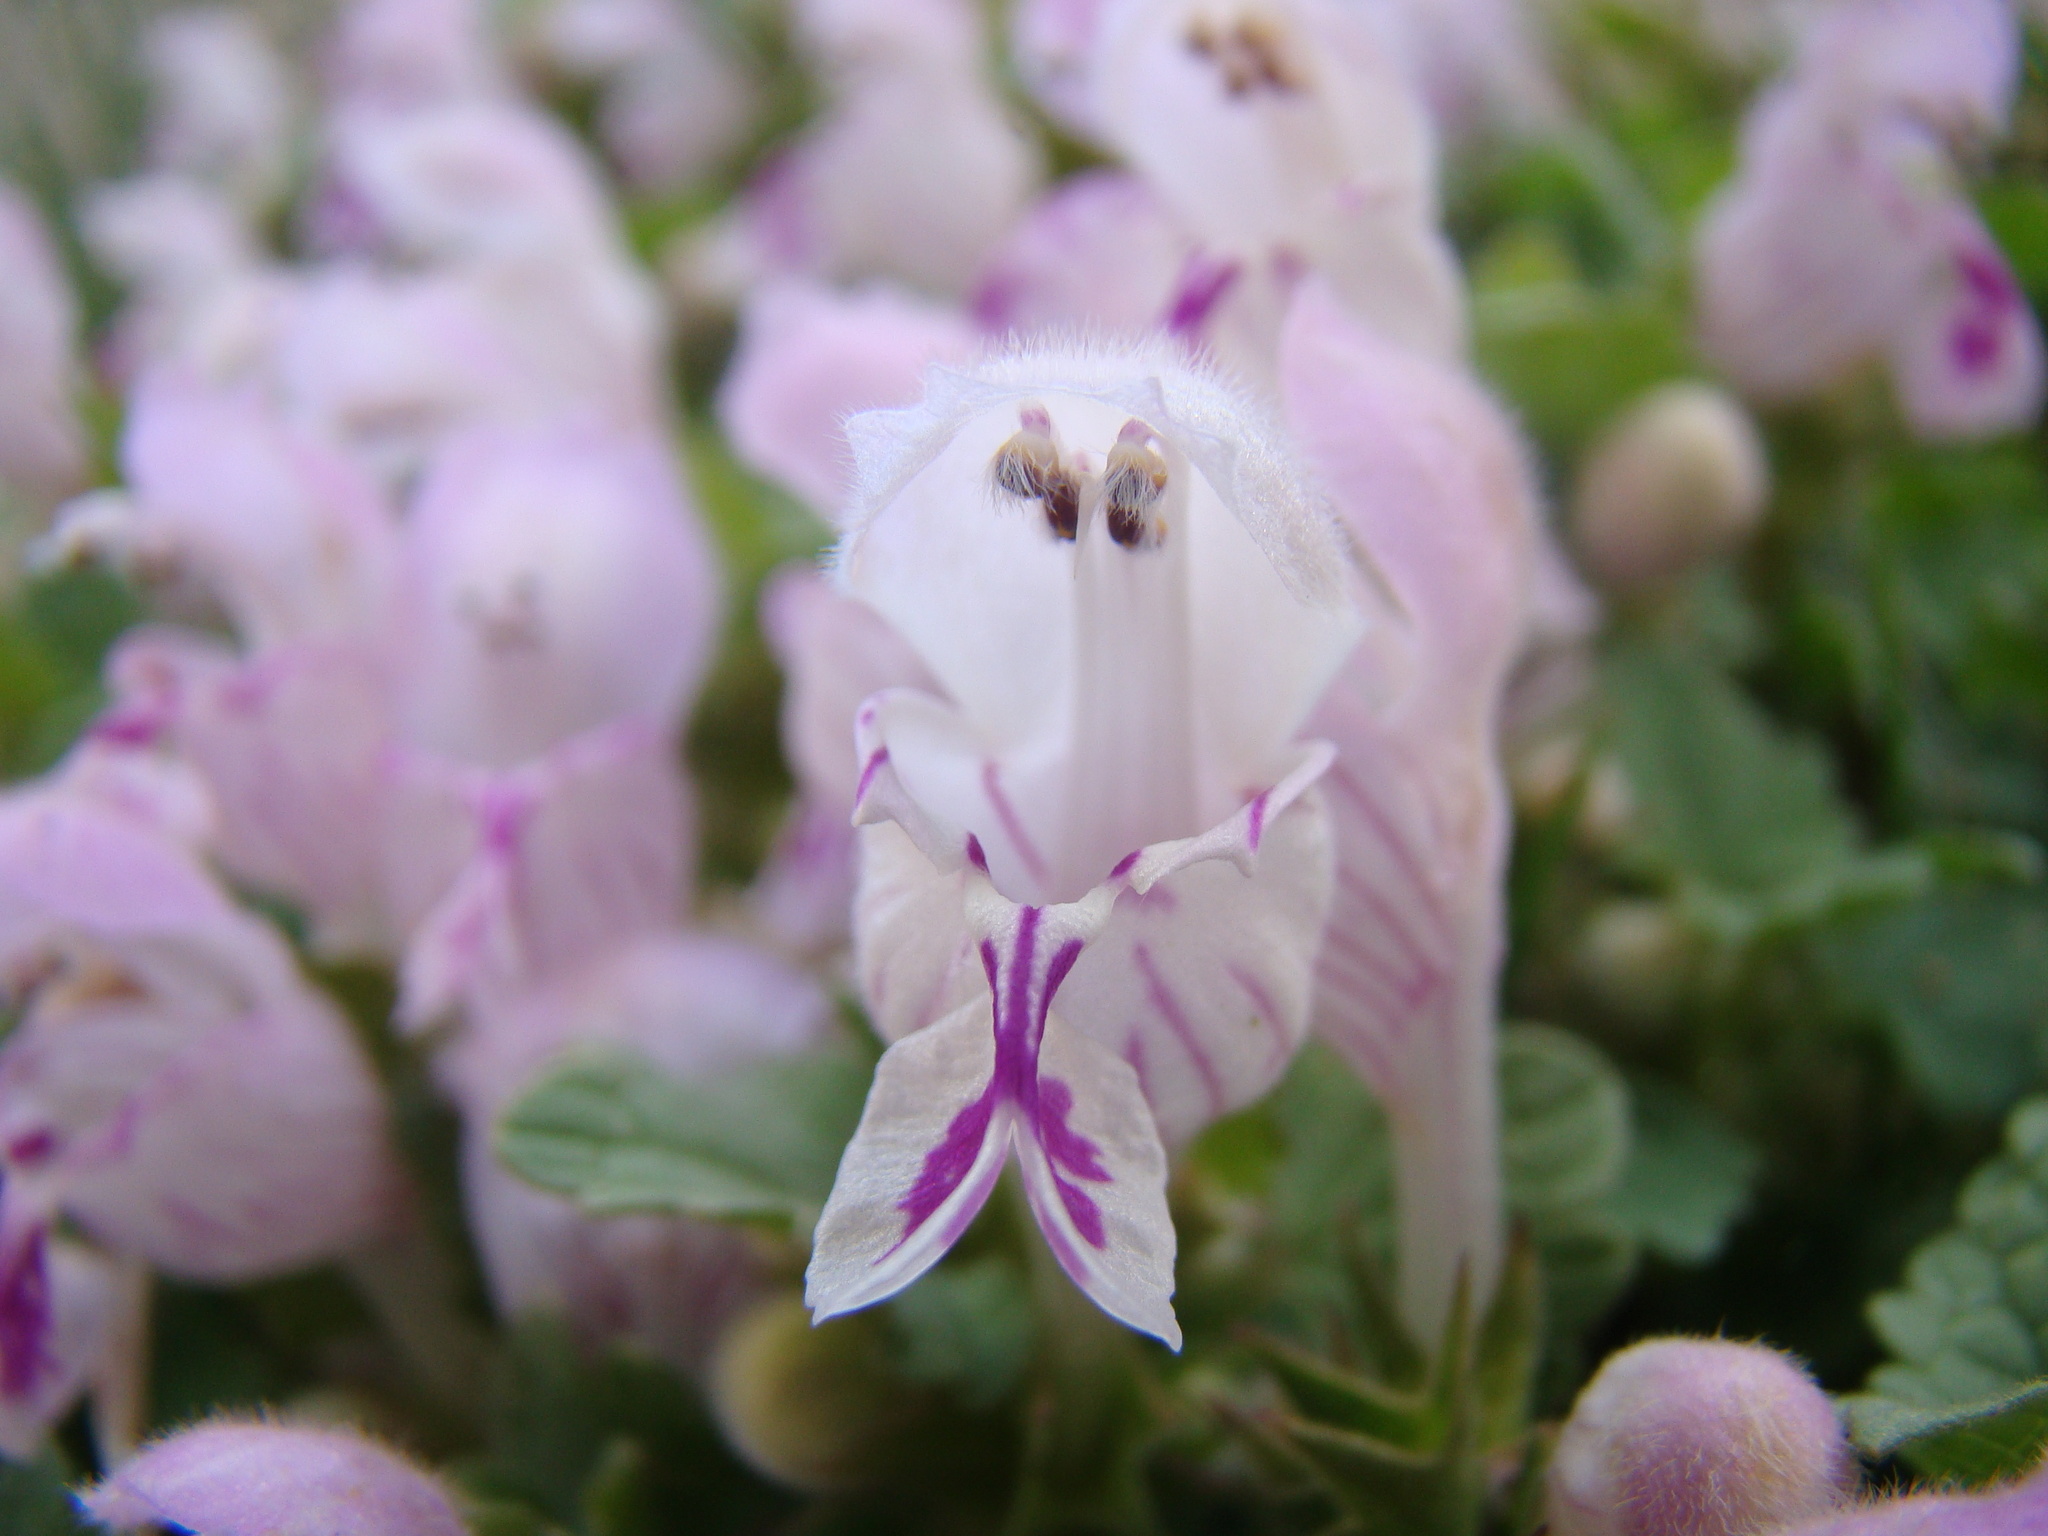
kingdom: Plantae
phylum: Tracheophyta
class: Magnoliopsida
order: Lamiales
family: Lamiaceae
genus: Lamium
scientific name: Lamium garganicum
